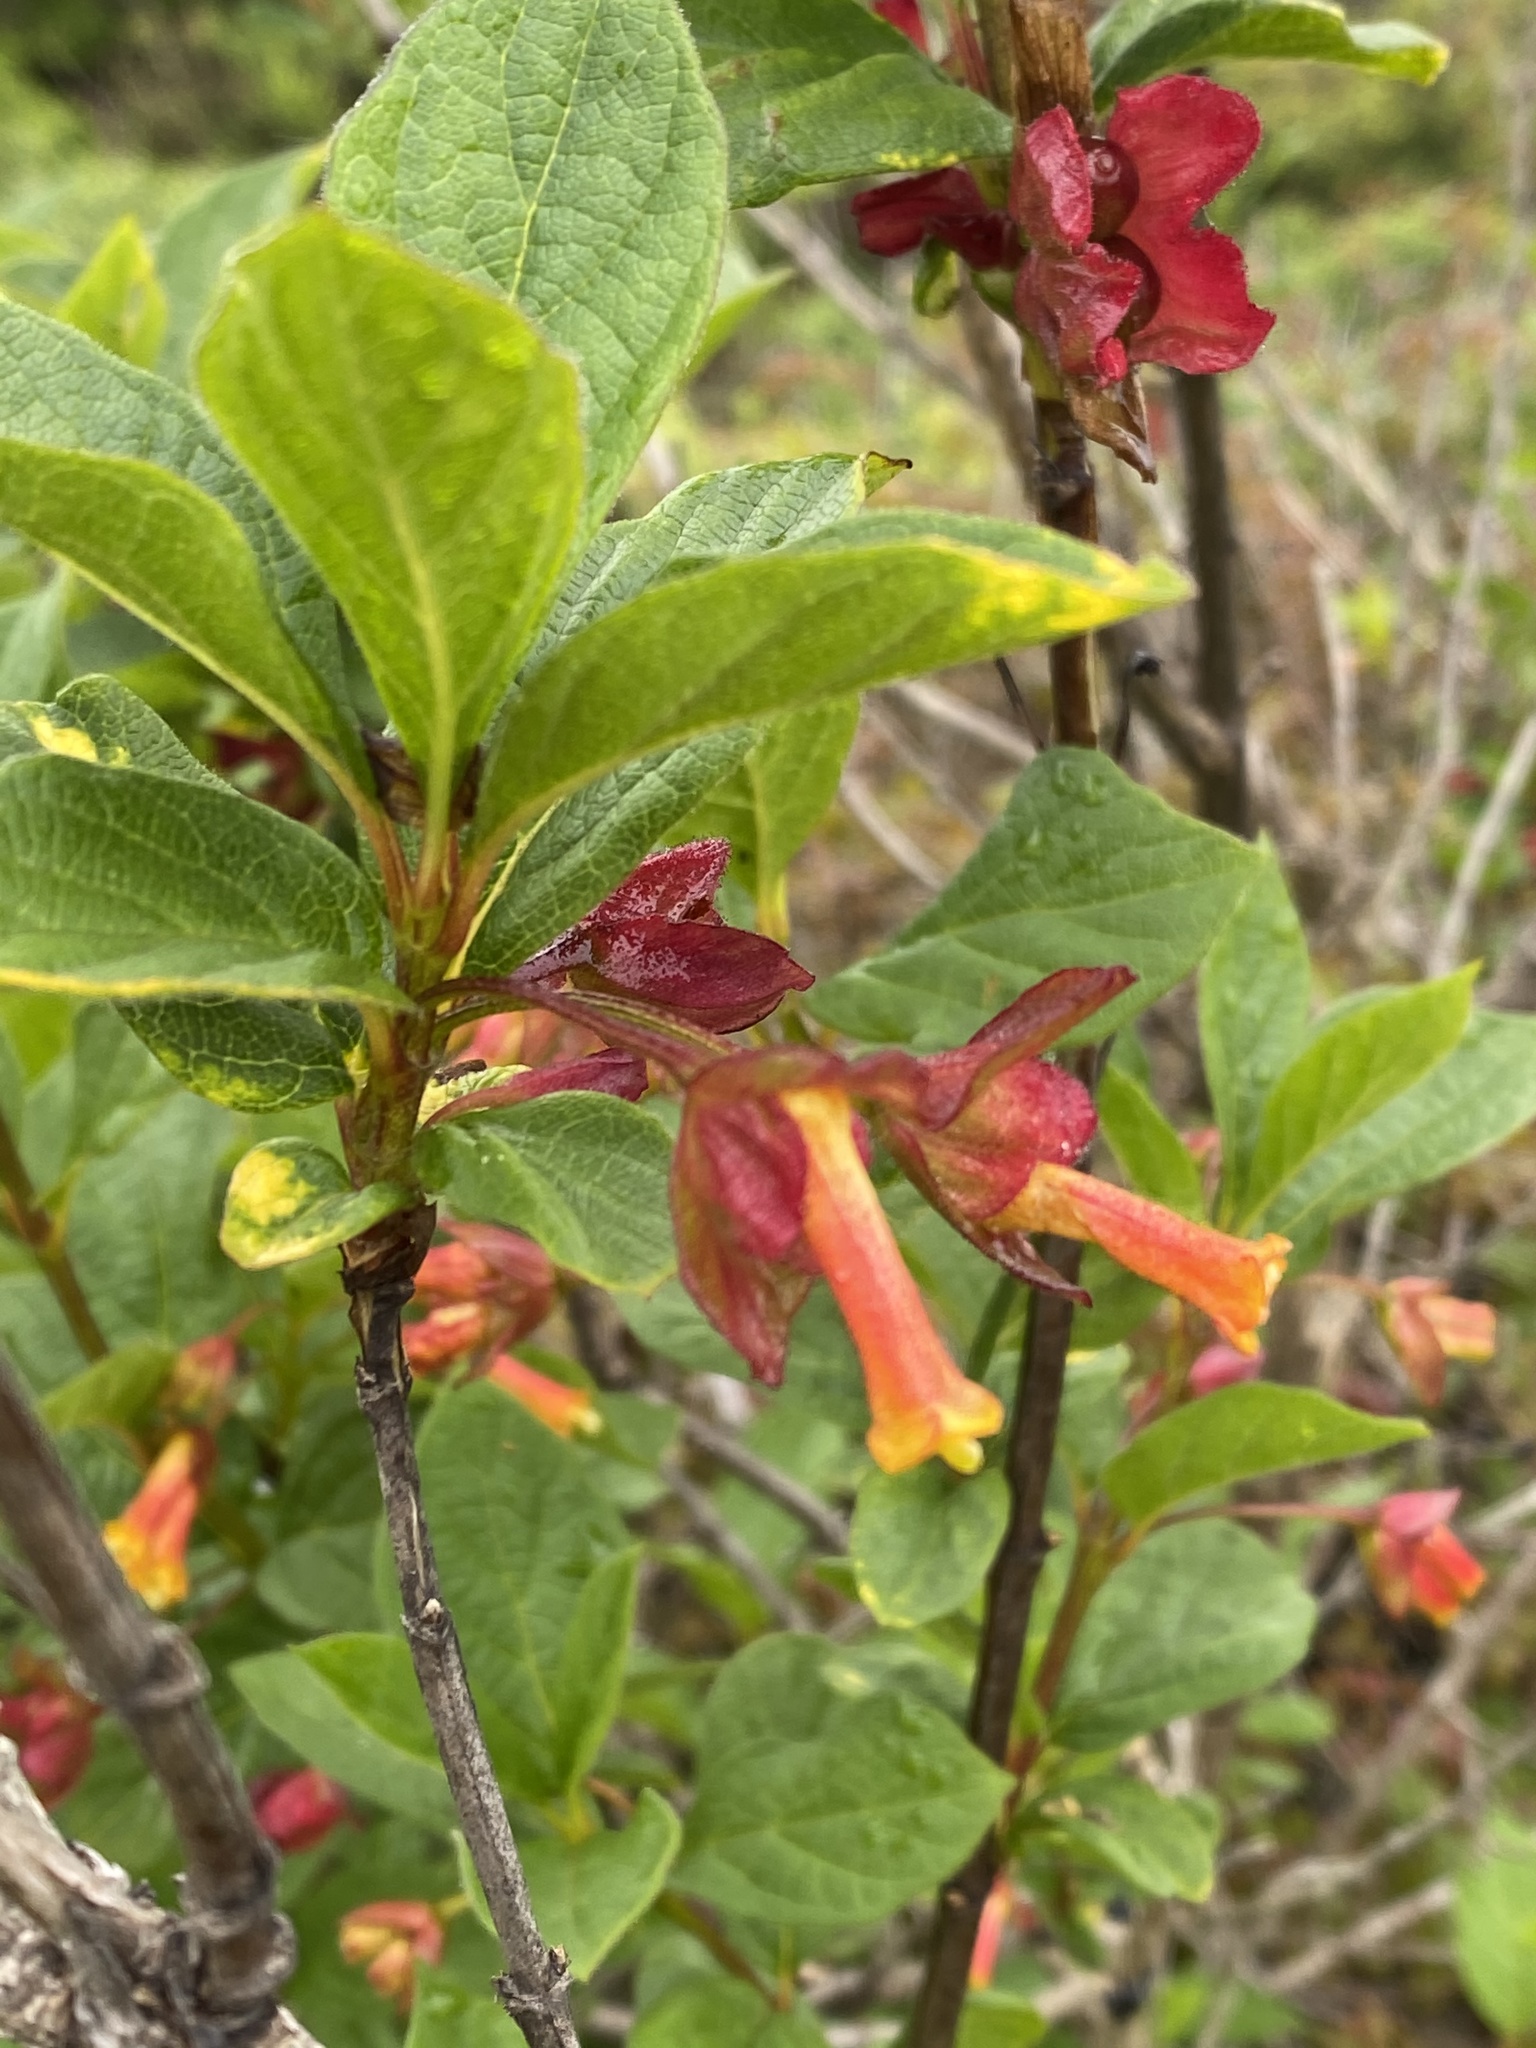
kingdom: Plantae
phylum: Tracheophyta
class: Magnoliopsida
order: Dipsacales
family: Caprifoliaceae
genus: Lonicera
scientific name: Lonicera involucrata
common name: Californian honeysuckle
